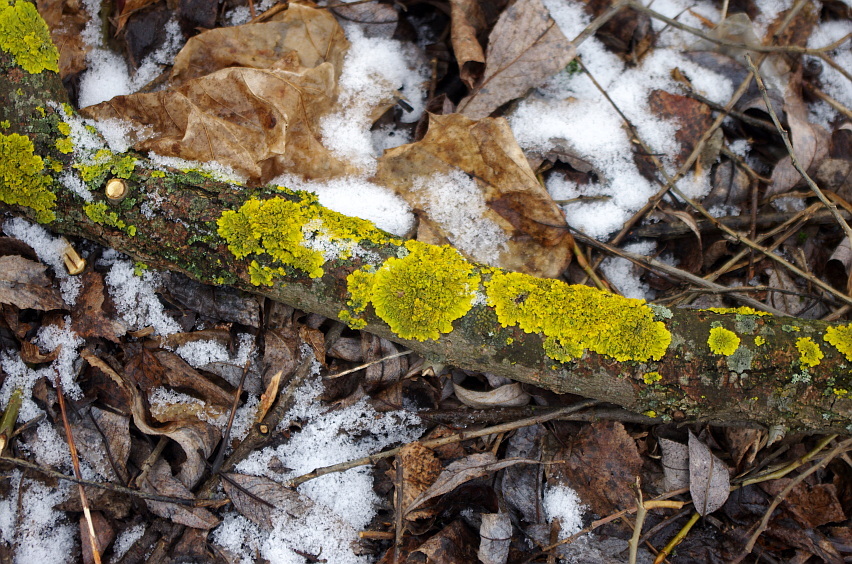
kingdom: Fungi
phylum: Ascomycota
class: Lecanoromycetes
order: Teloschistales
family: Teloschistaceae
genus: Xanthoria
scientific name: Xanthoria parietina
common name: Common orange lichen
